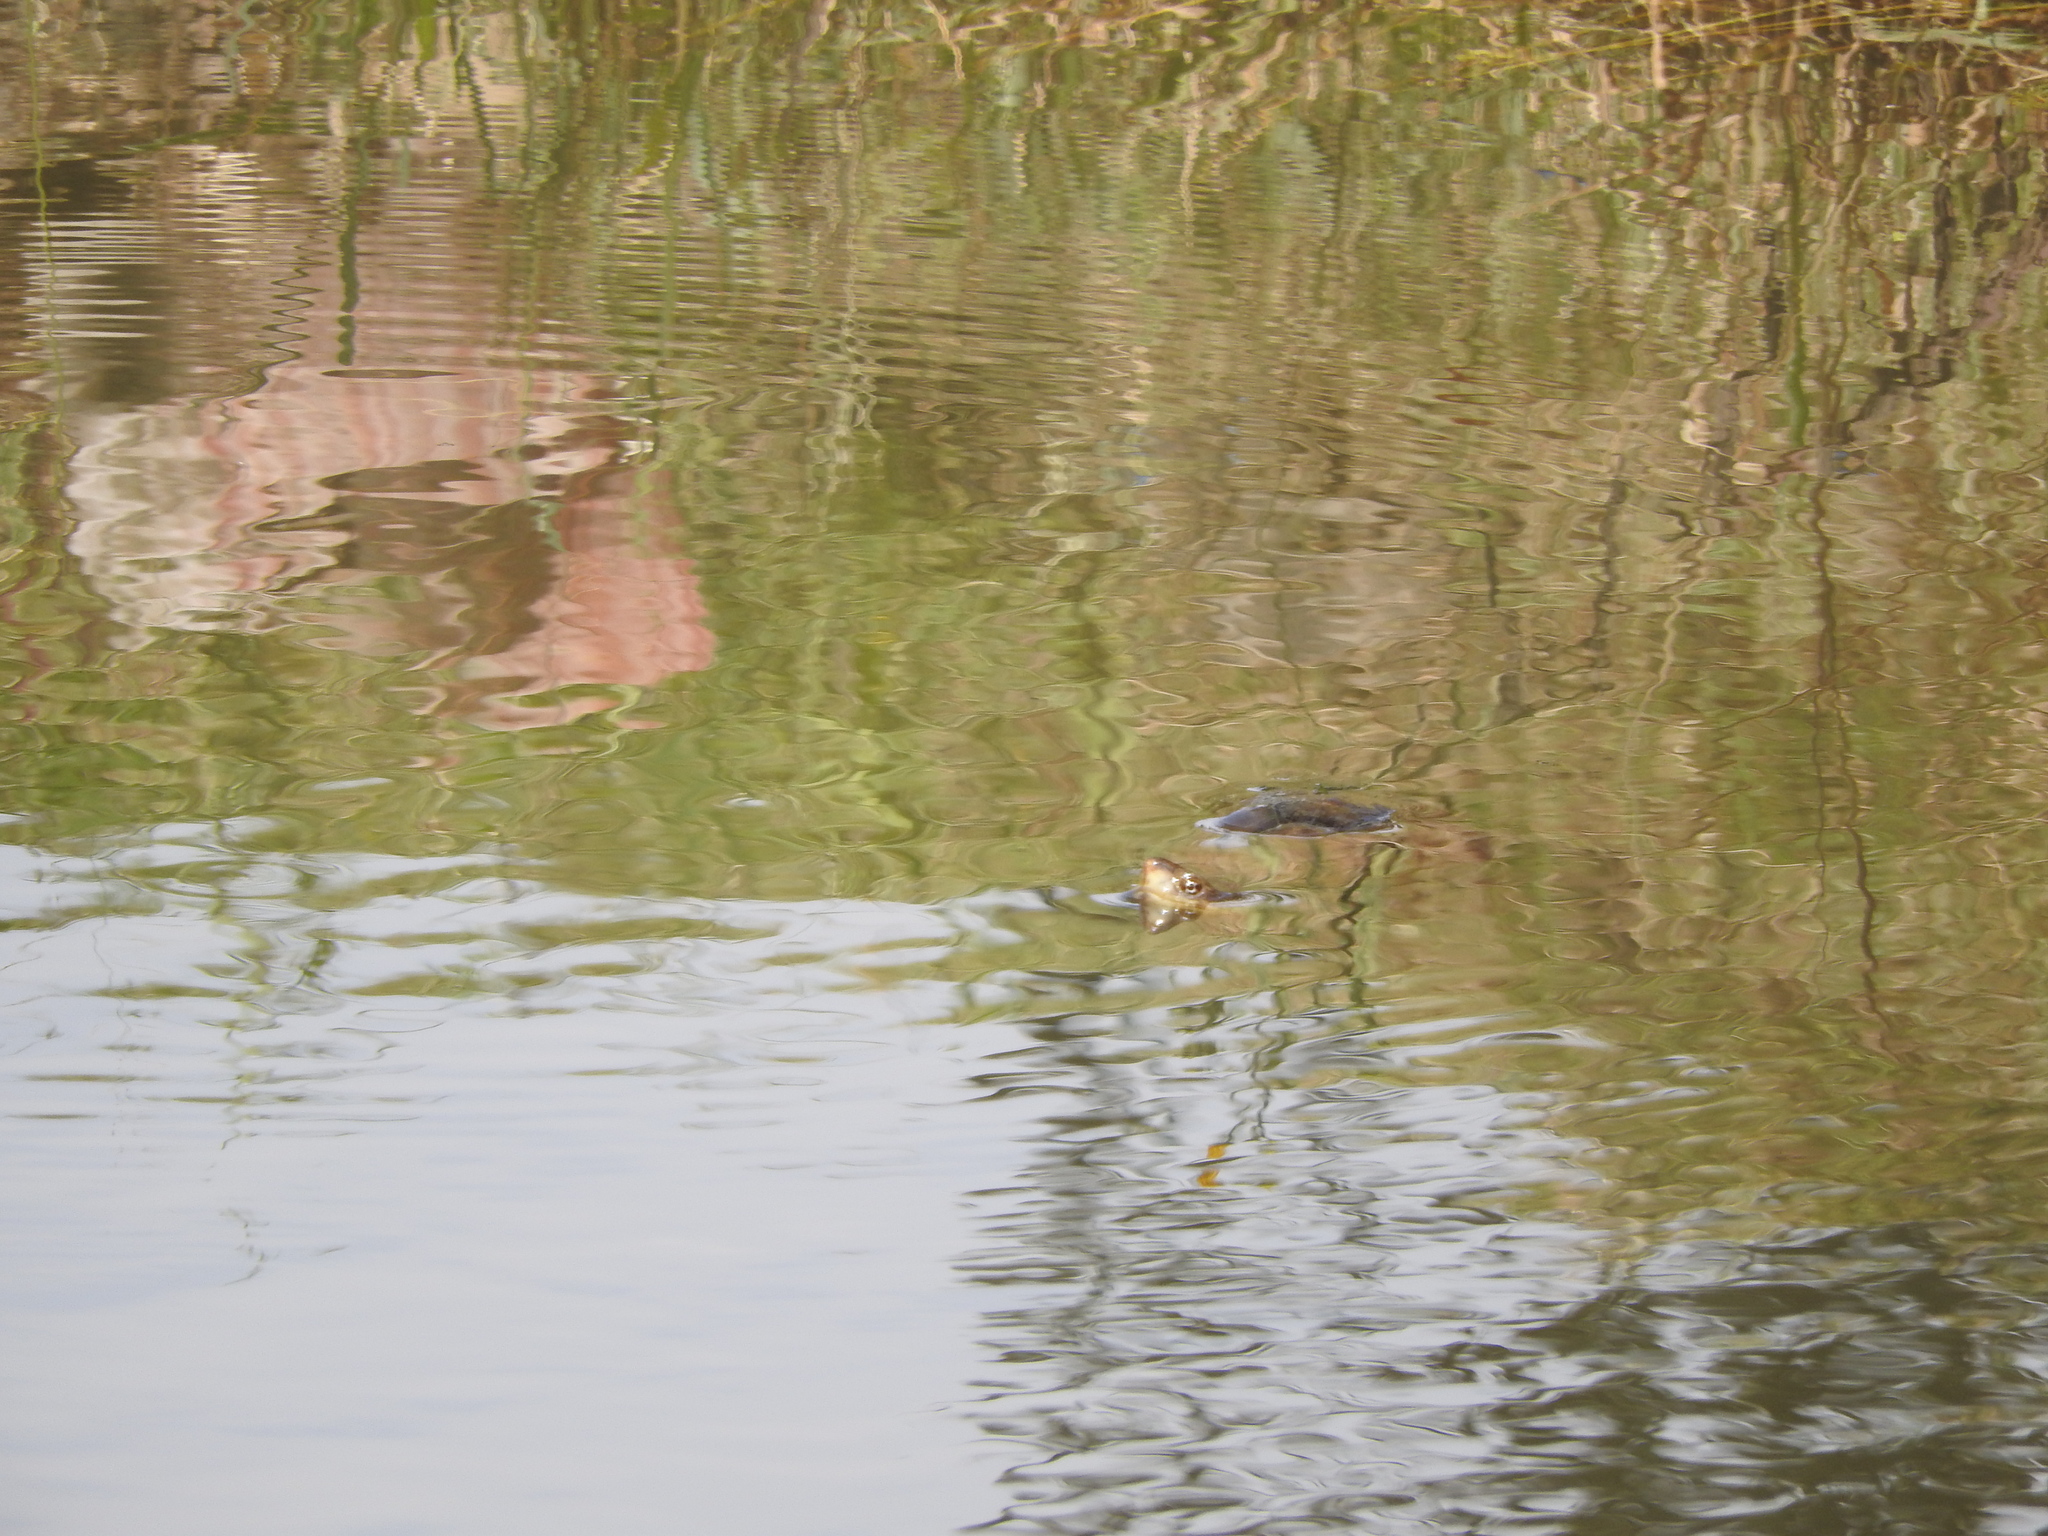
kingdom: Animalia
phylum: Chordata
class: Testudines
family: Kinosternidae
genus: Kinosternon
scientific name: Kinosternon integrum
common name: Mexican mud turtle
